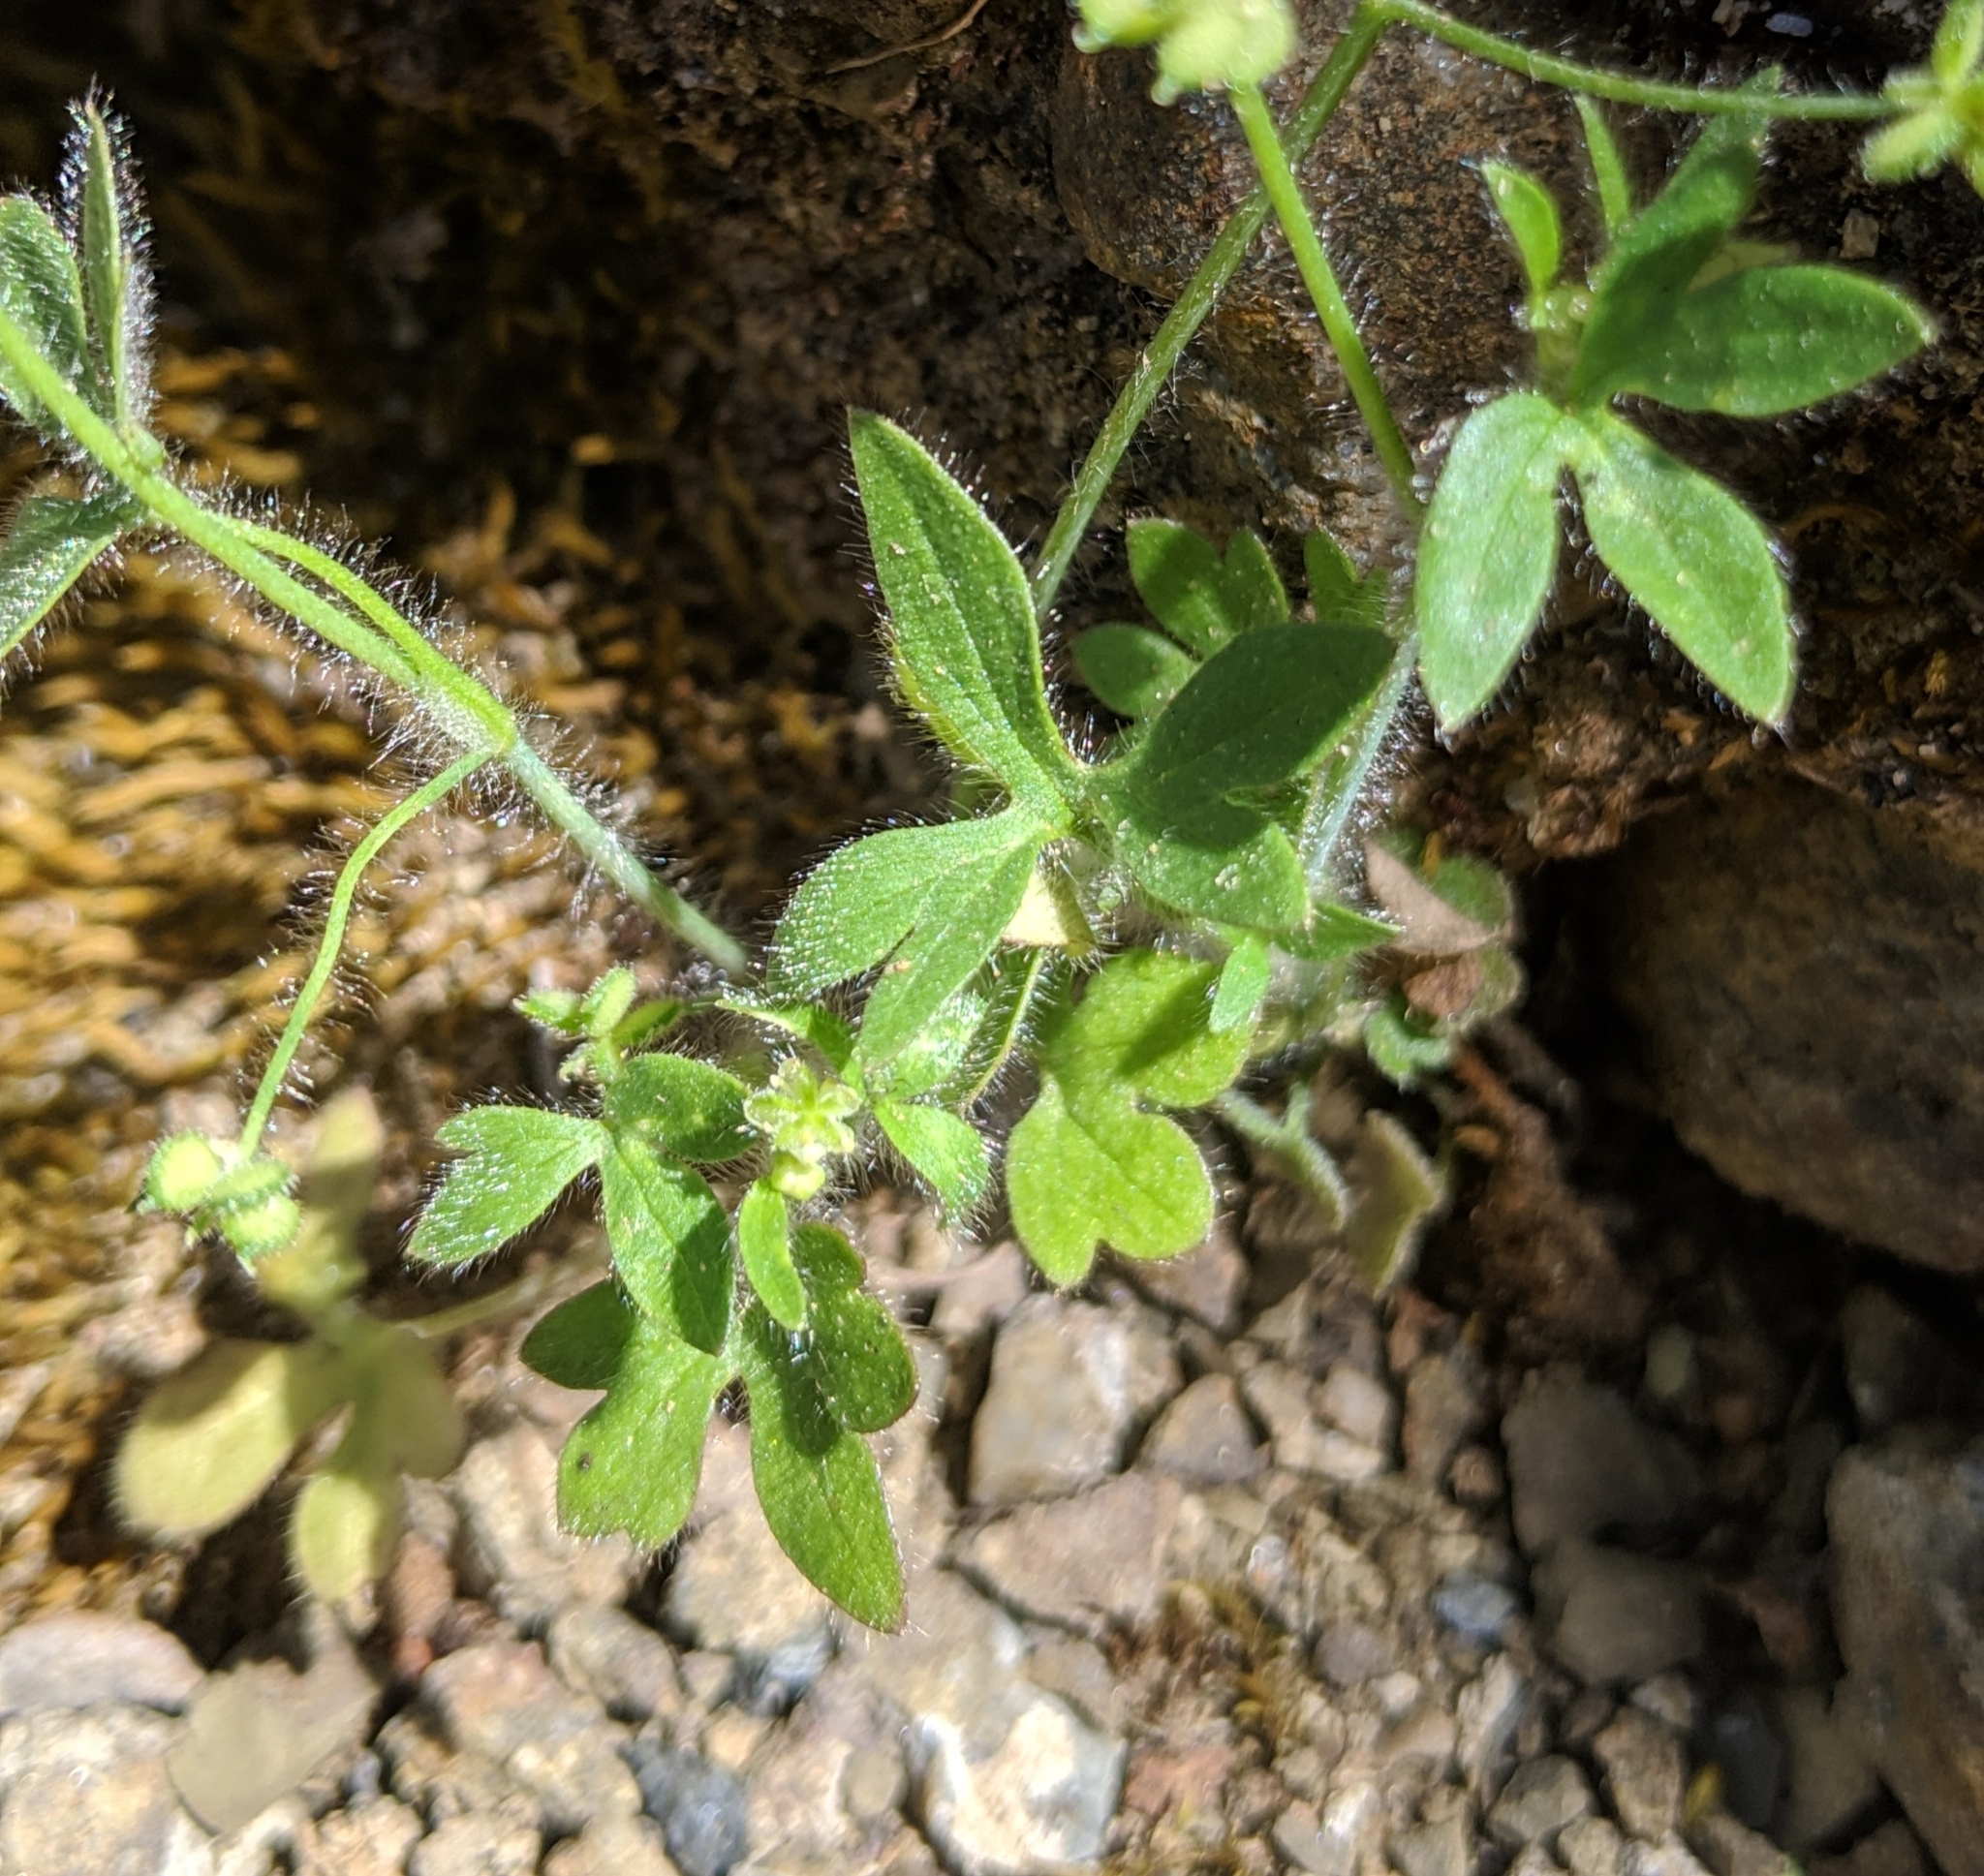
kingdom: Plantae
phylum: Tracheophyta
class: Magnoliopsida
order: Ranunculales
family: Ranunculaceae
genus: Ranunculus
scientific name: Ranunculus hebecarpus
